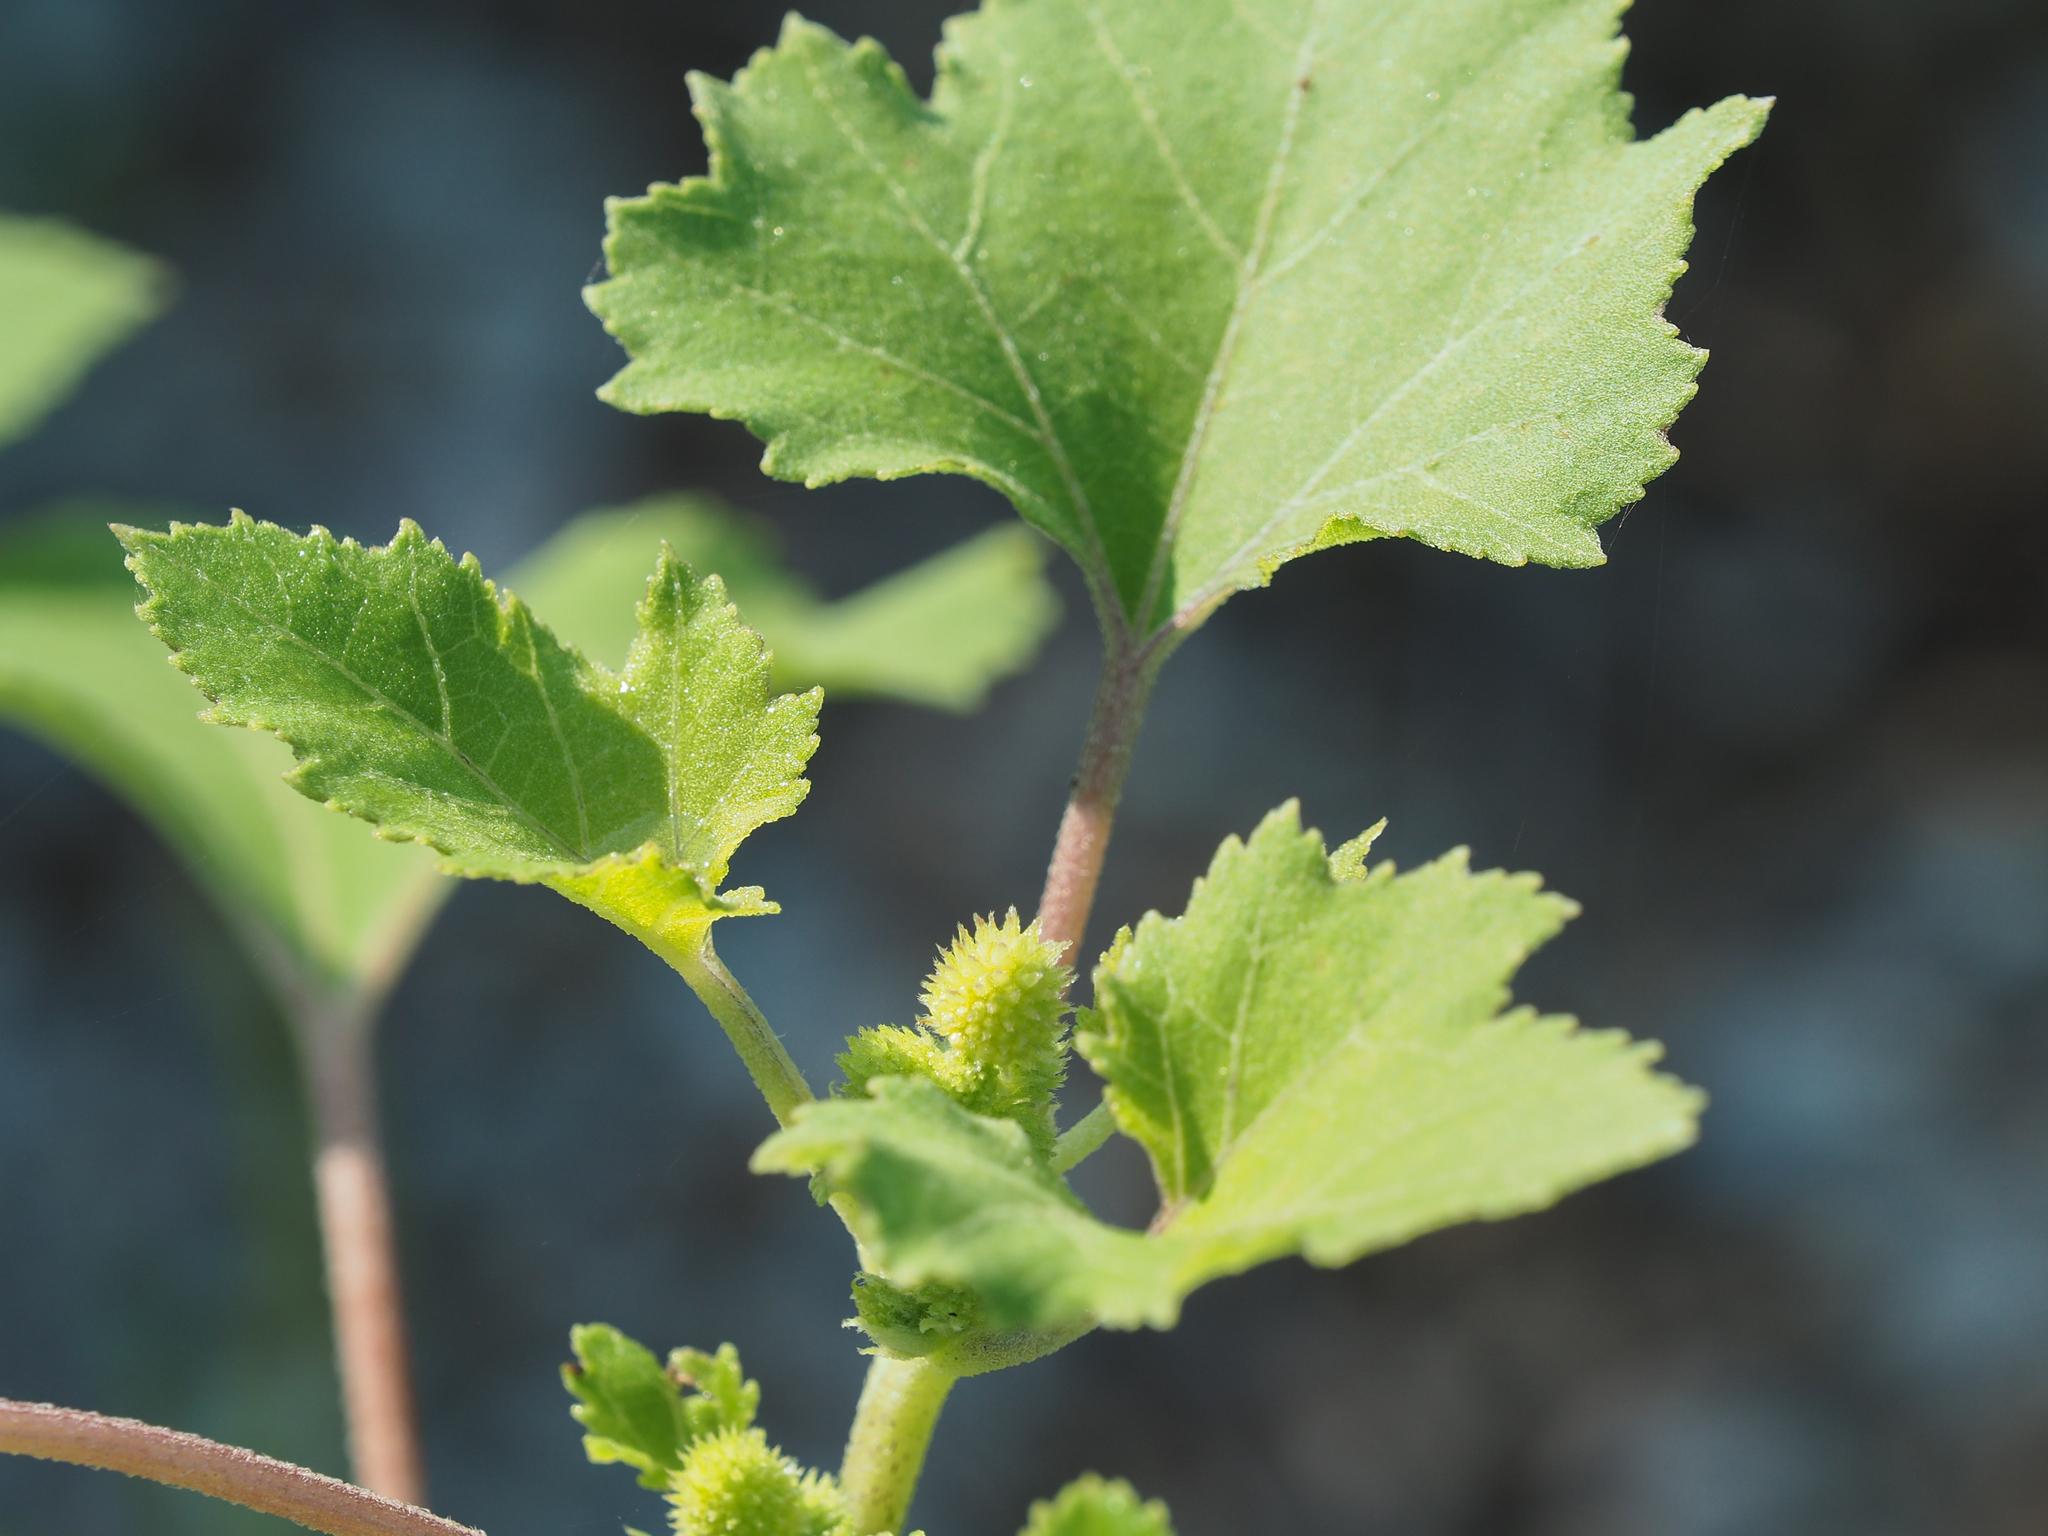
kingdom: Plantae
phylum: Tracheophyta
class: Magnoliopsida
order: Asterales
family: Asteraceae
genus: Xanthium
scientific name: Xanthium strumarium
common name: Rough cocklebur
